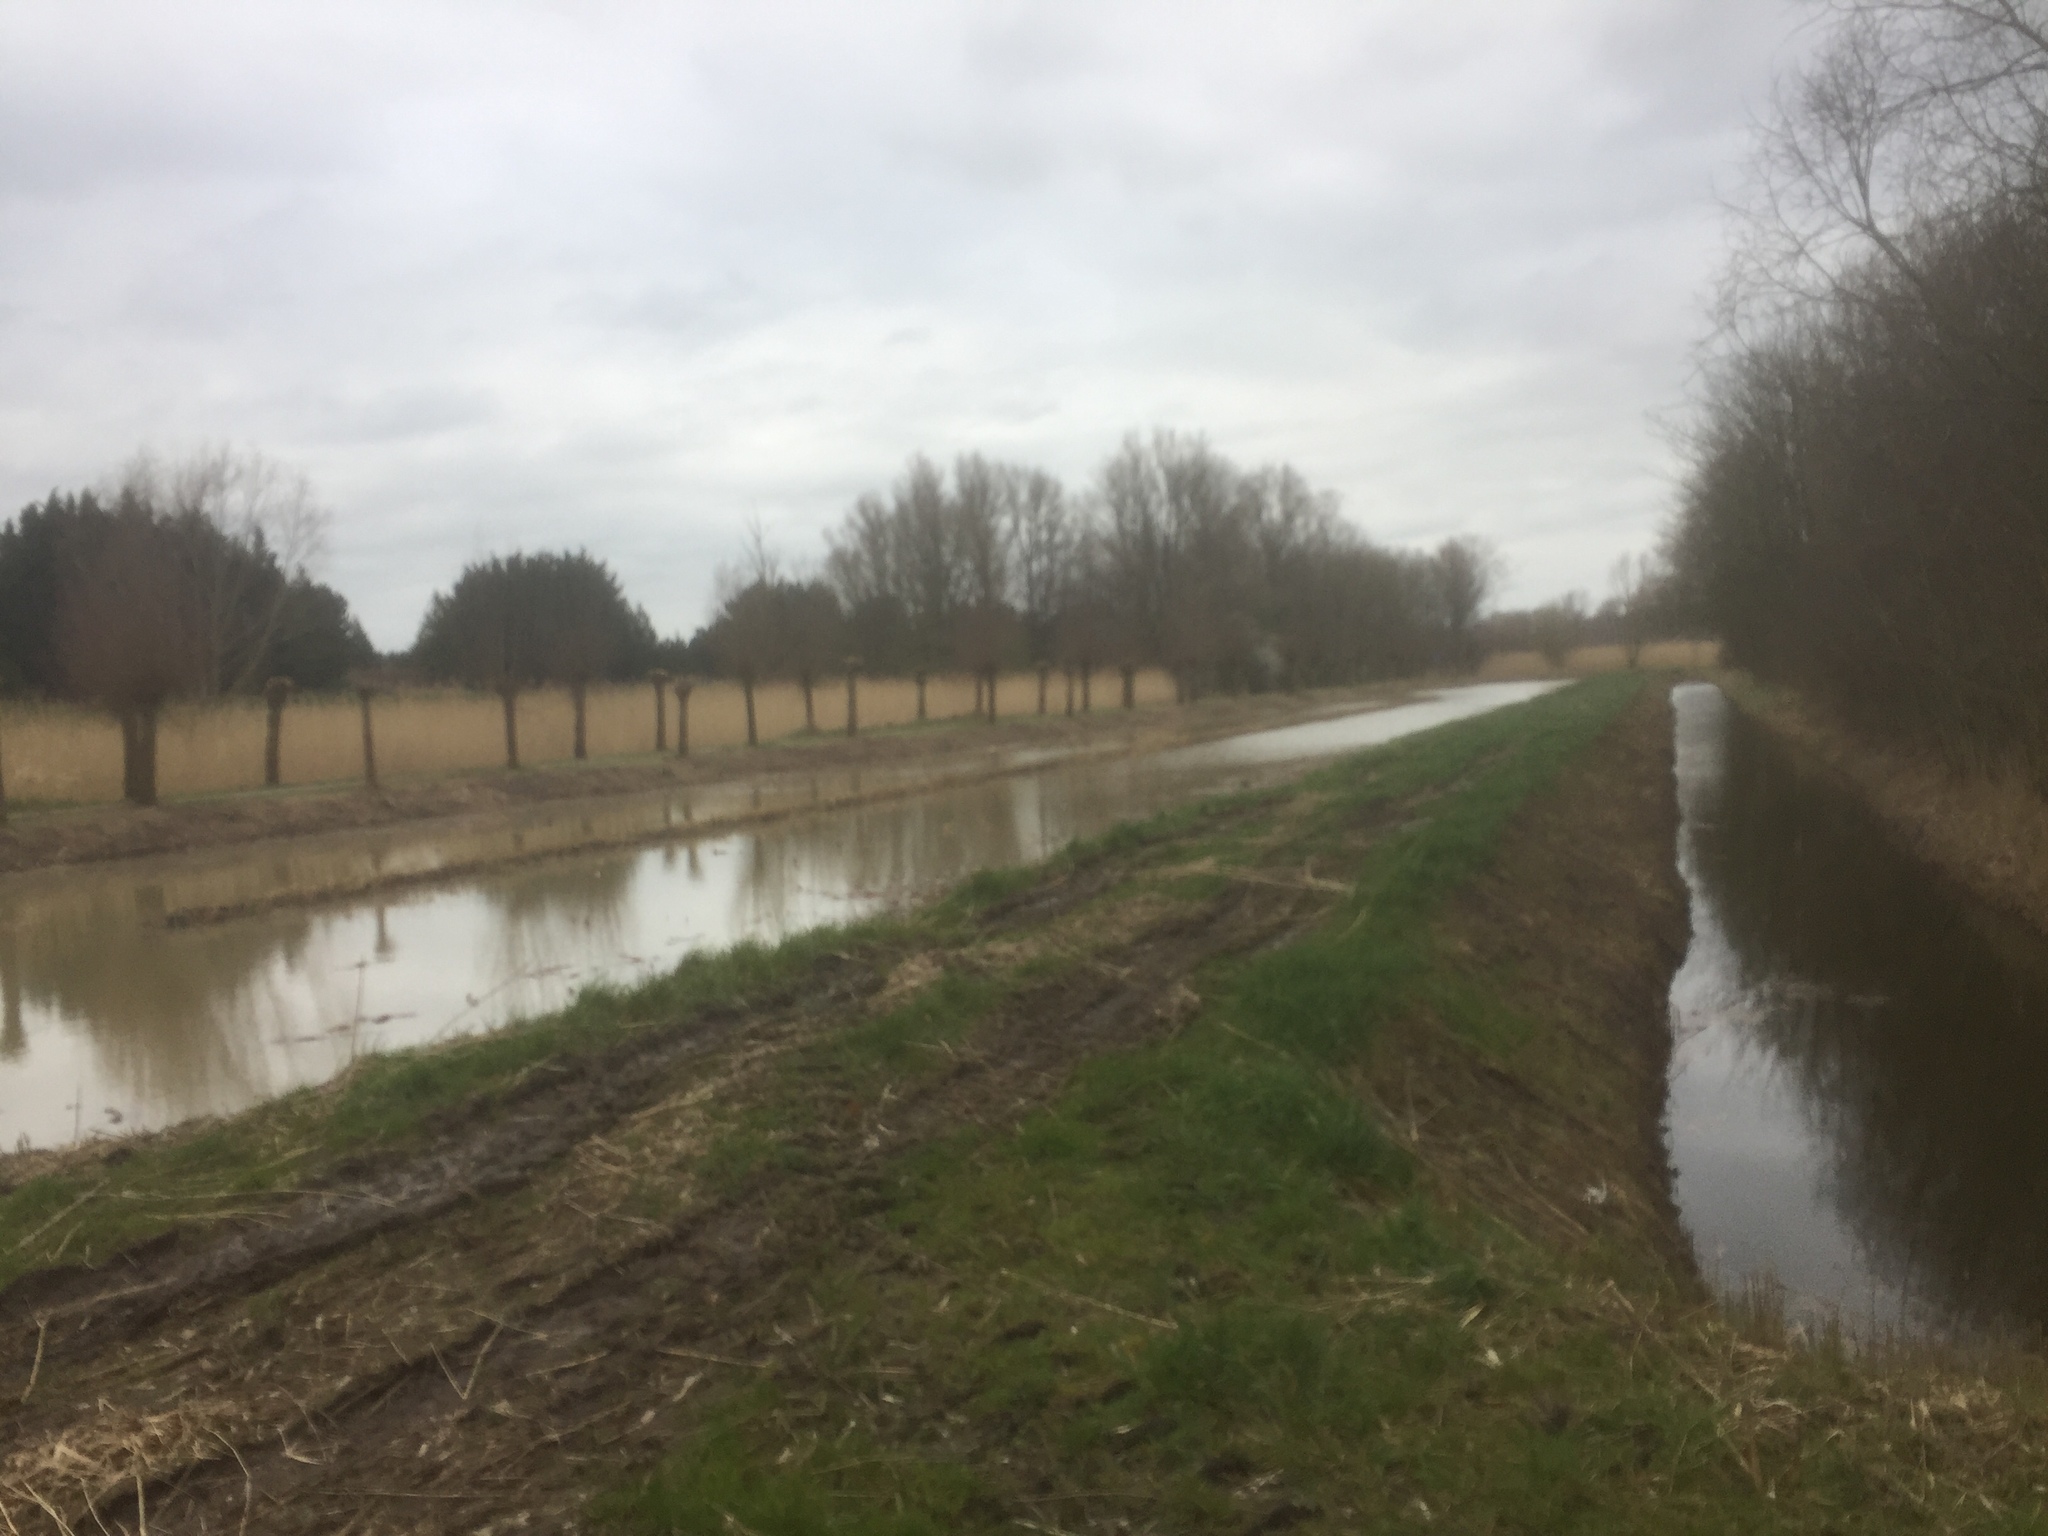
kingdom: Plantae
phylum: Tracheophyta
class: Liliopsida
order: Poales
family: Poaceae
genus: Phragmites
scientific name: Phragmites australis
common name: Common reed
